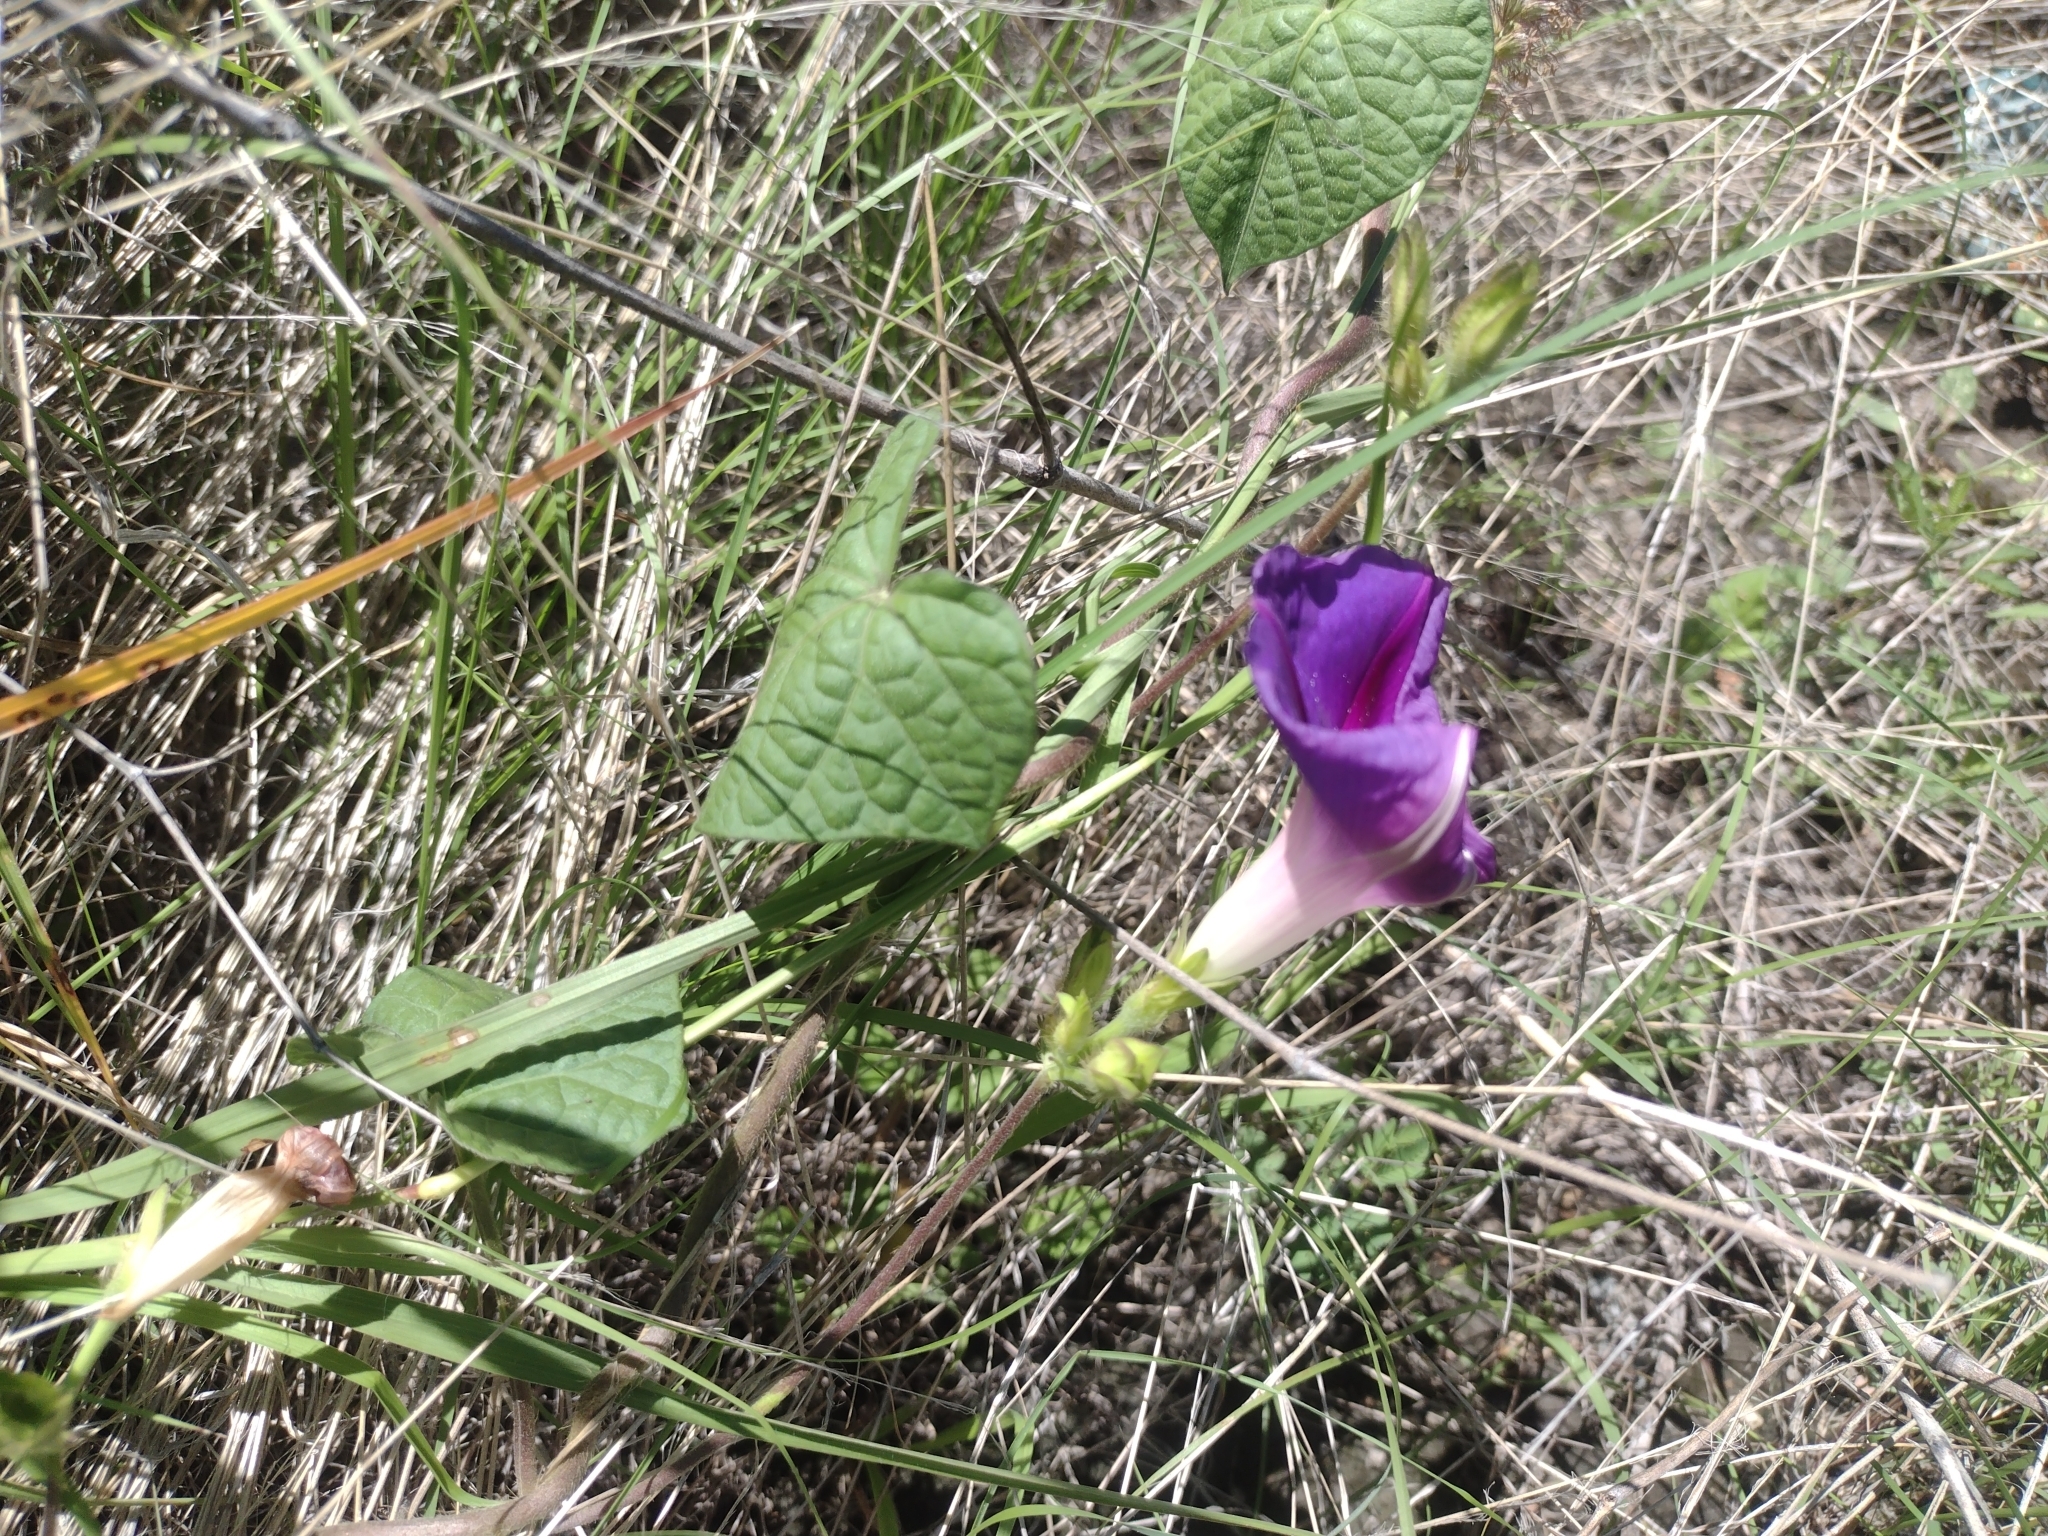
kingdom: Plantae
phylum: Tracheophyta
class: Magnoliopsida
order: Solanales
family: Convolvulaceae
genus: Ipomoea
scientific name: Ipomoea purpurea
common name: Common morning-glory
